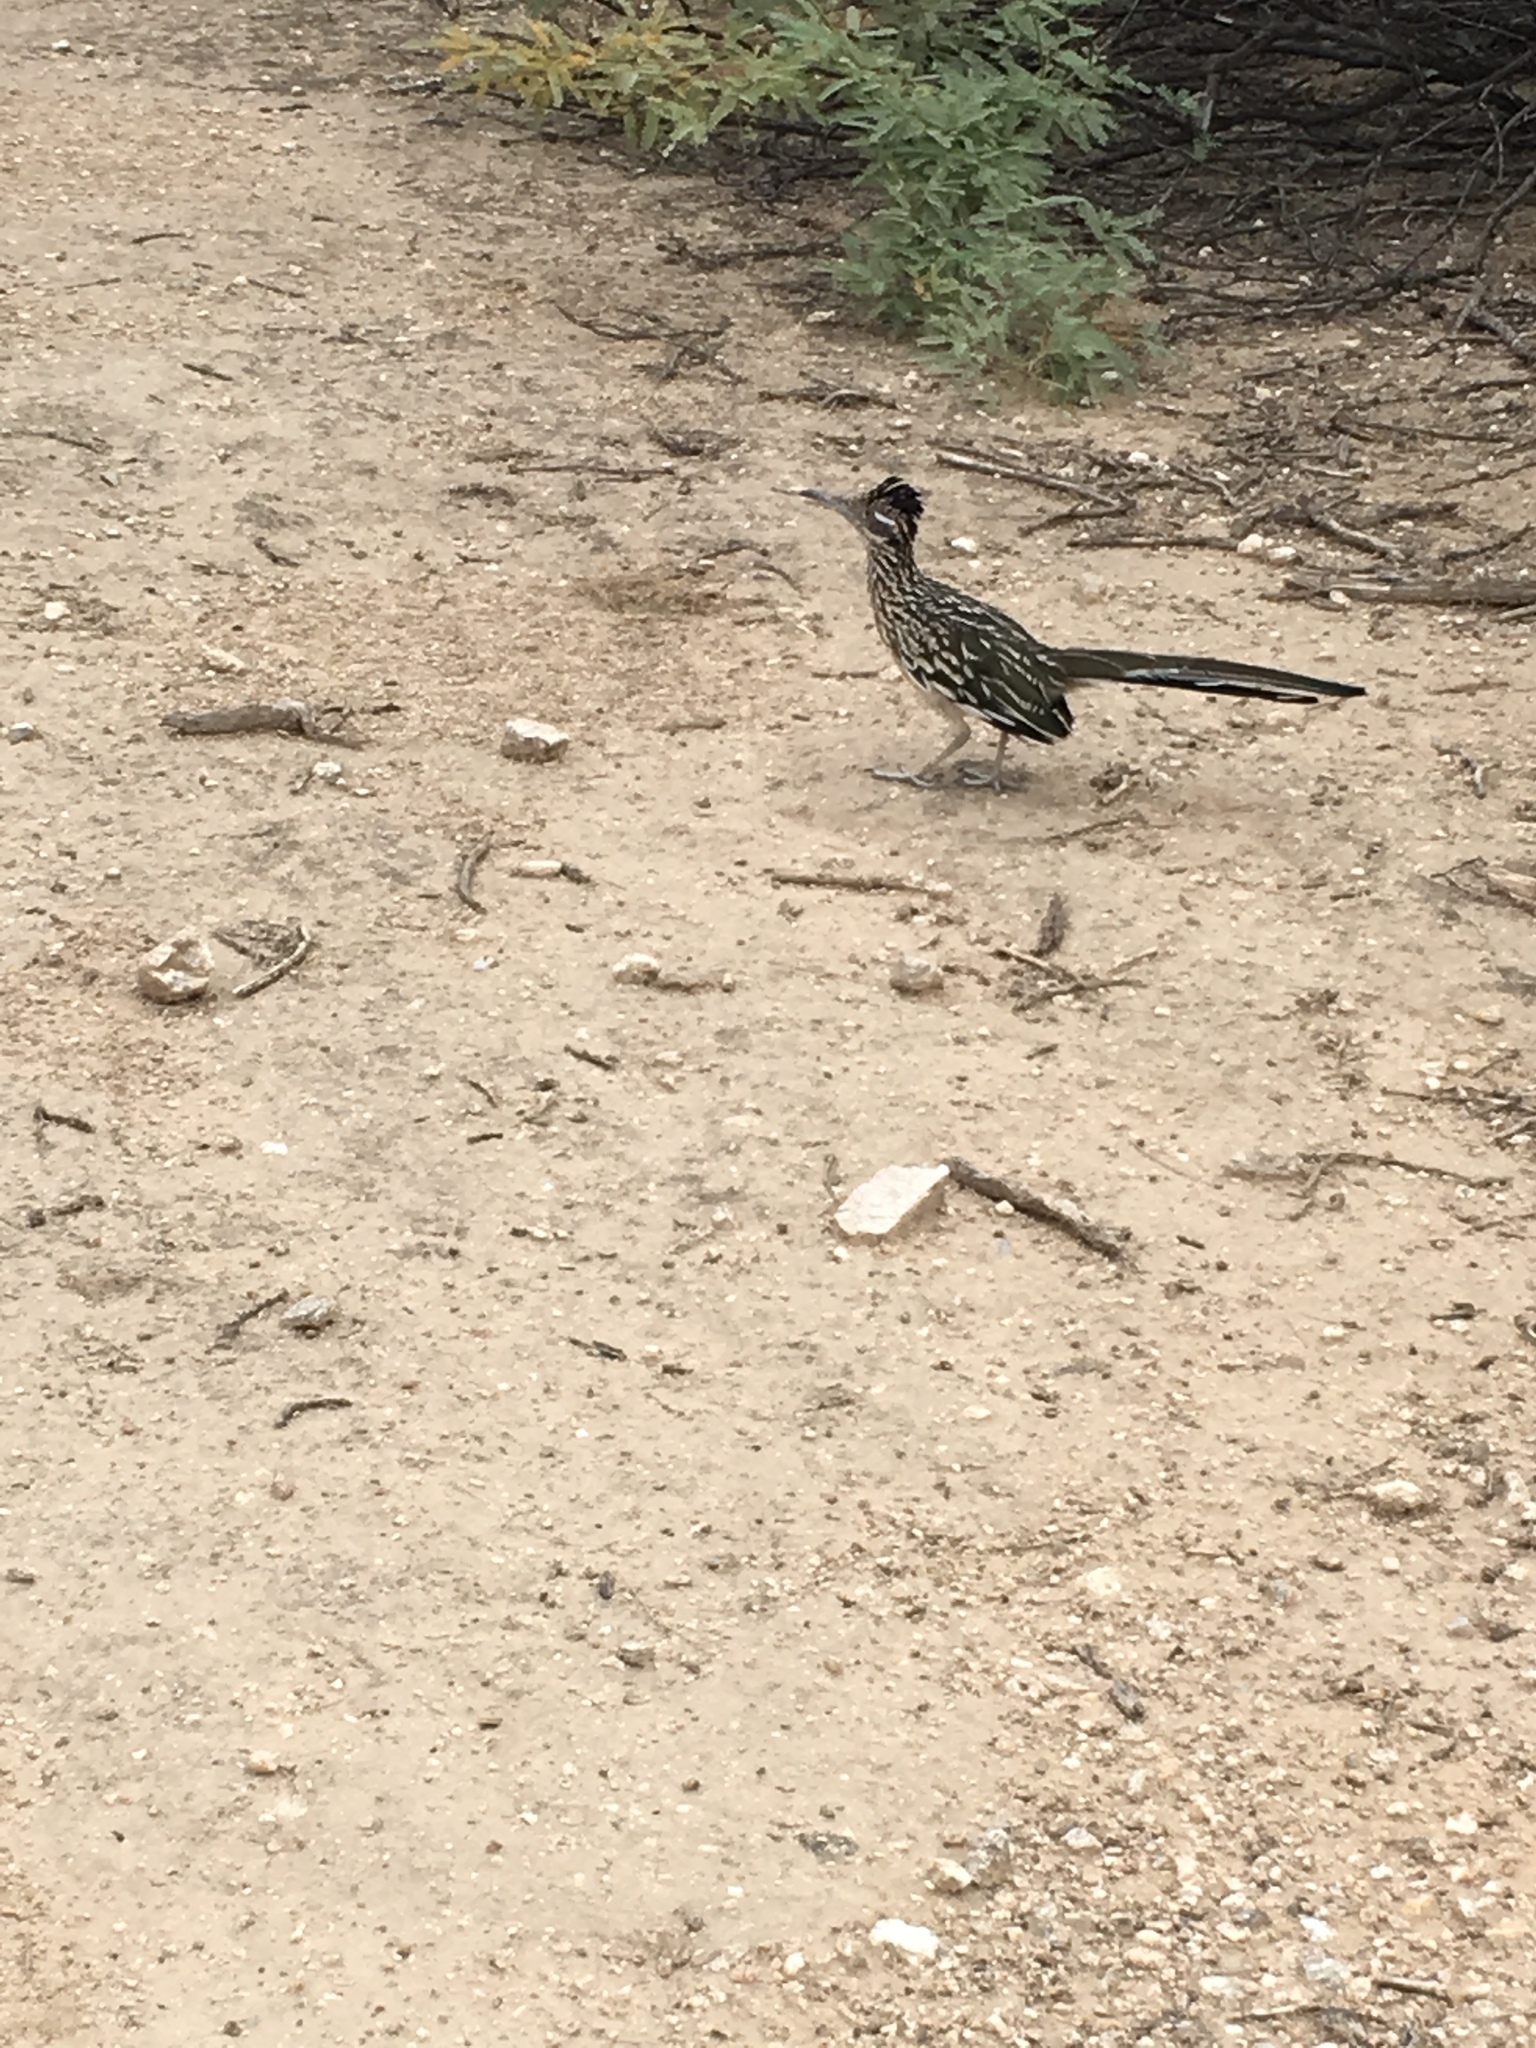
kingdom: Animalia
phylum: Chordata
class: Aves
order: Cuculiformes
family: Cuculidae
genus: Geococcyx
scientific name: Geococcyx californianus
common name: Greater roadrunner
